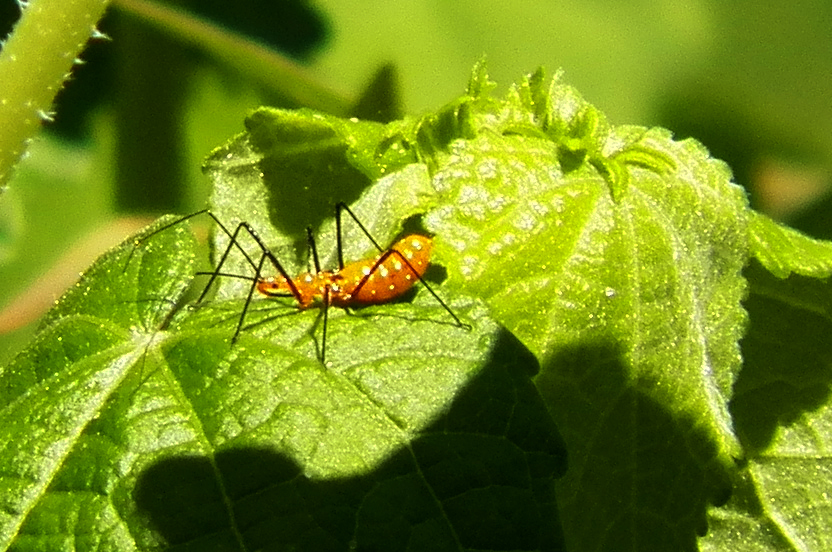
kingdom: Animalia
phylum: Arthropoda
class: Insecta
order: Hemiptera
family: Reduviidae
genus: Zelus
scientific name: Zelus longipes
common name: Milkweed assassin bug
